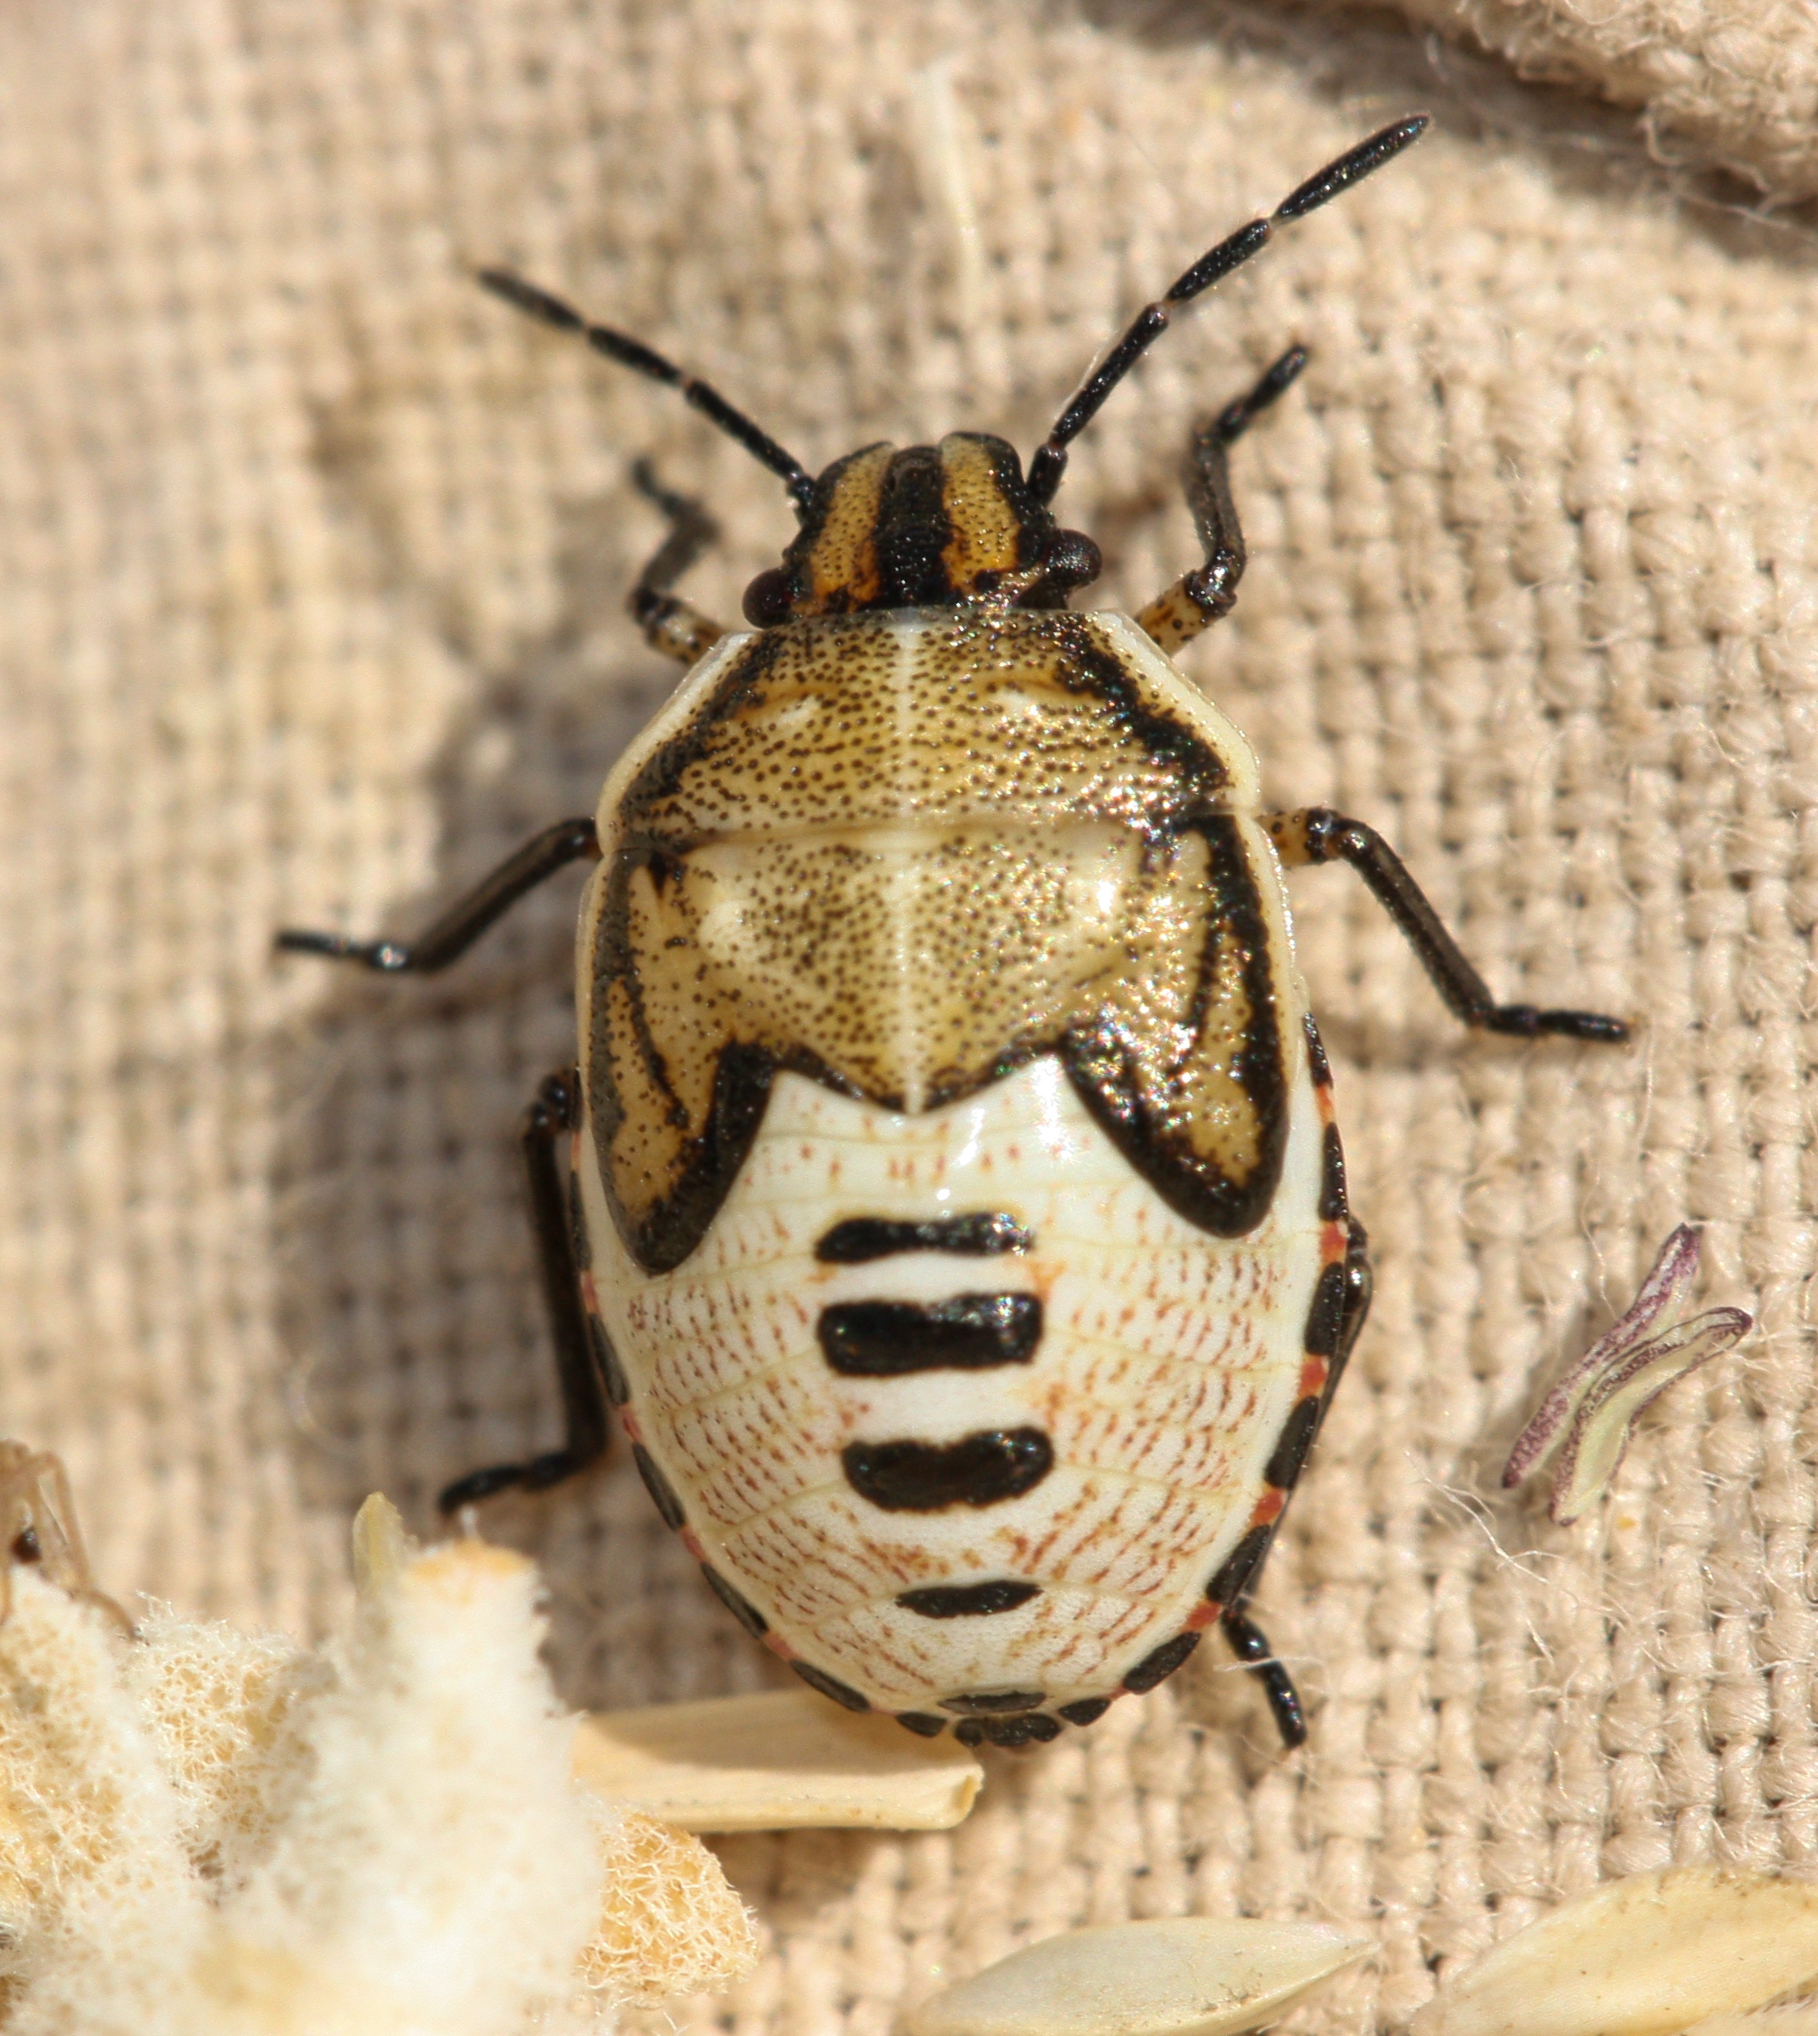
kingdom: Animalia
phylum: Arthropoda
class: Insecta
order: Hemiptera
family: Pentatomidae
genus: Moromorpha
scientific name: Moromorpha tetra
